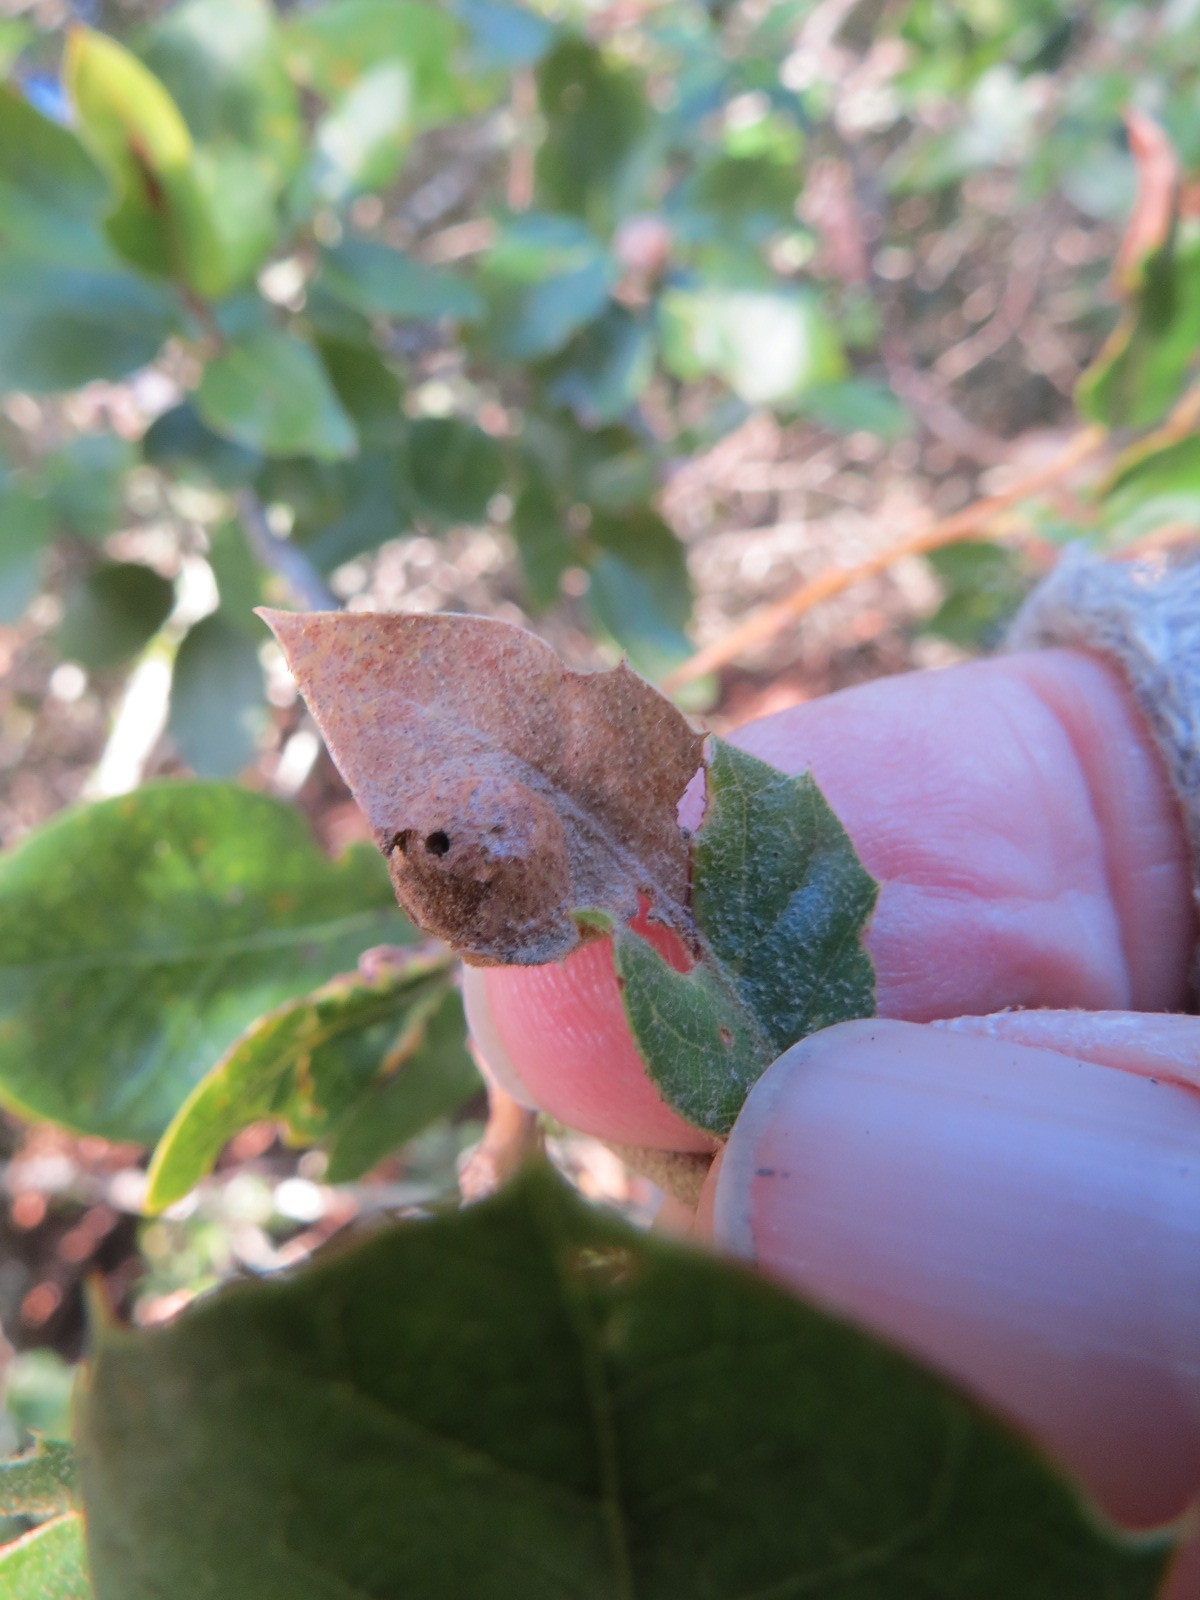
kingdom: Animalia
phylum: Arthropoda
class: Insecta
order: Hymenoptera
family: Cynipidae
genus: Heteroecus
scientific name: Heteroecus
